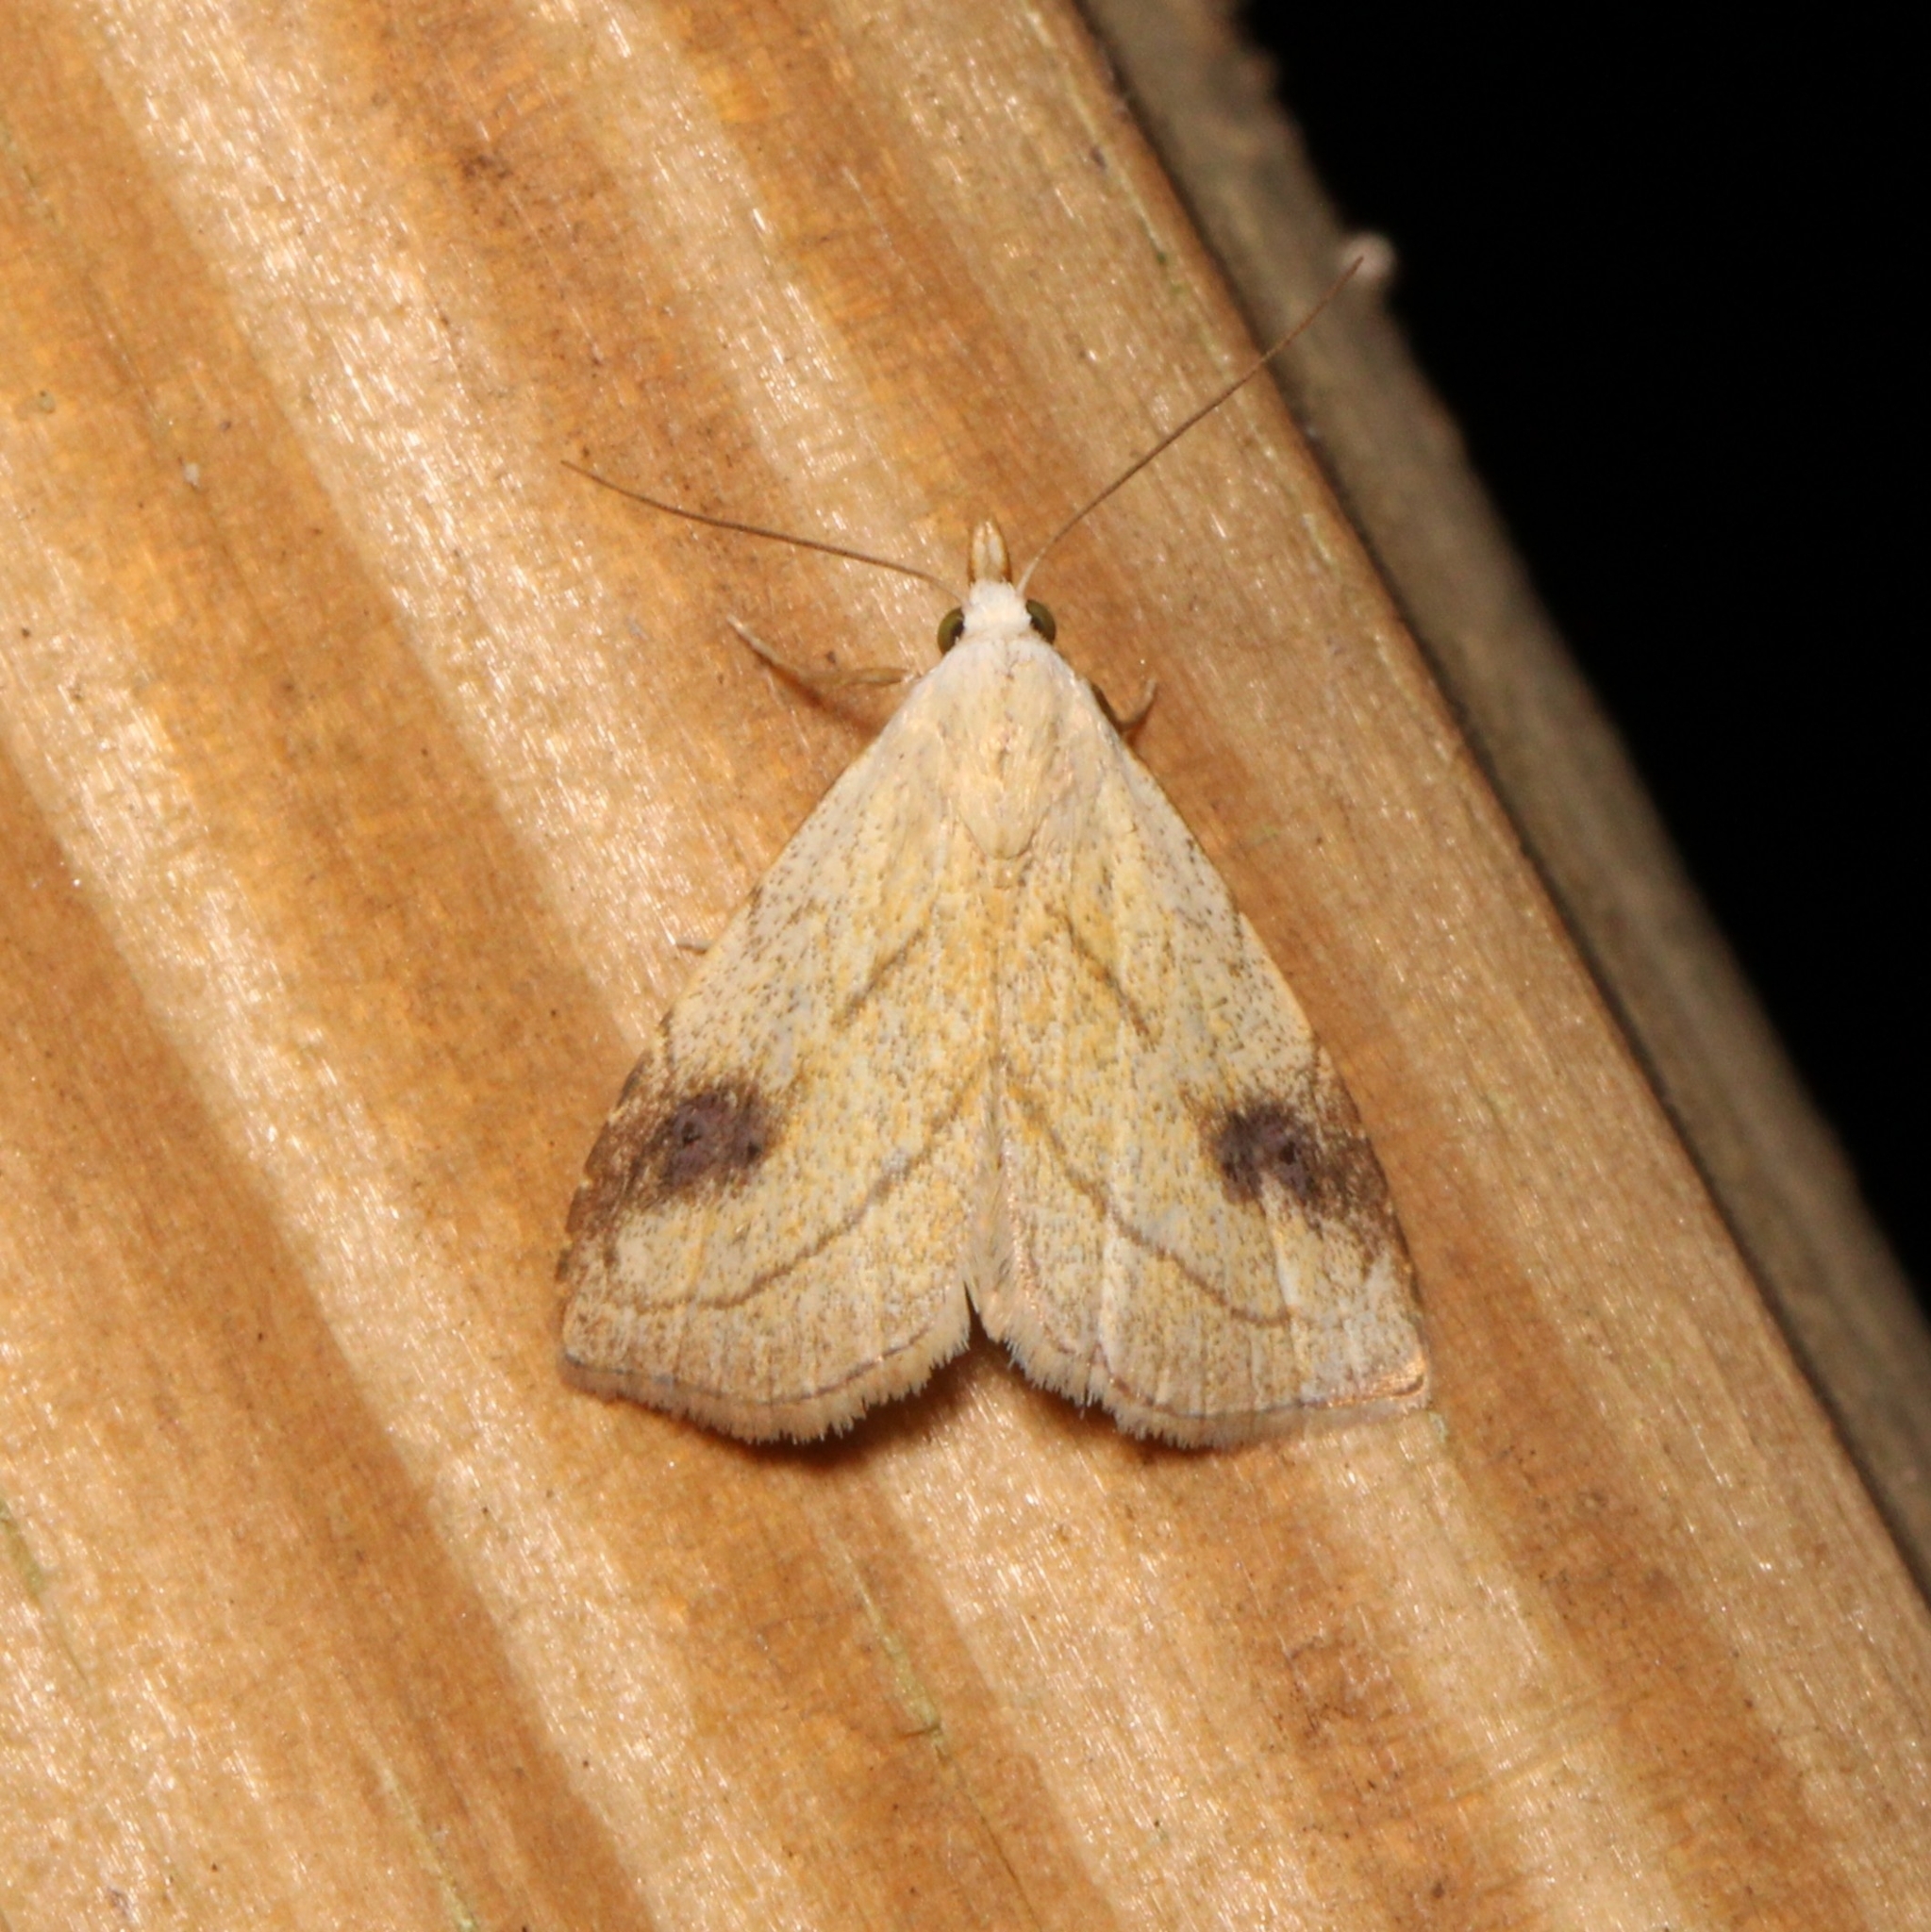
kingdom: Animalia
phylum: Arthropoda
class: Insecta
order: Lepidoptera
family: Erebidae
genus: Rivula
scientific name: Rivula propinqualis
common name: Spotted grass moth
